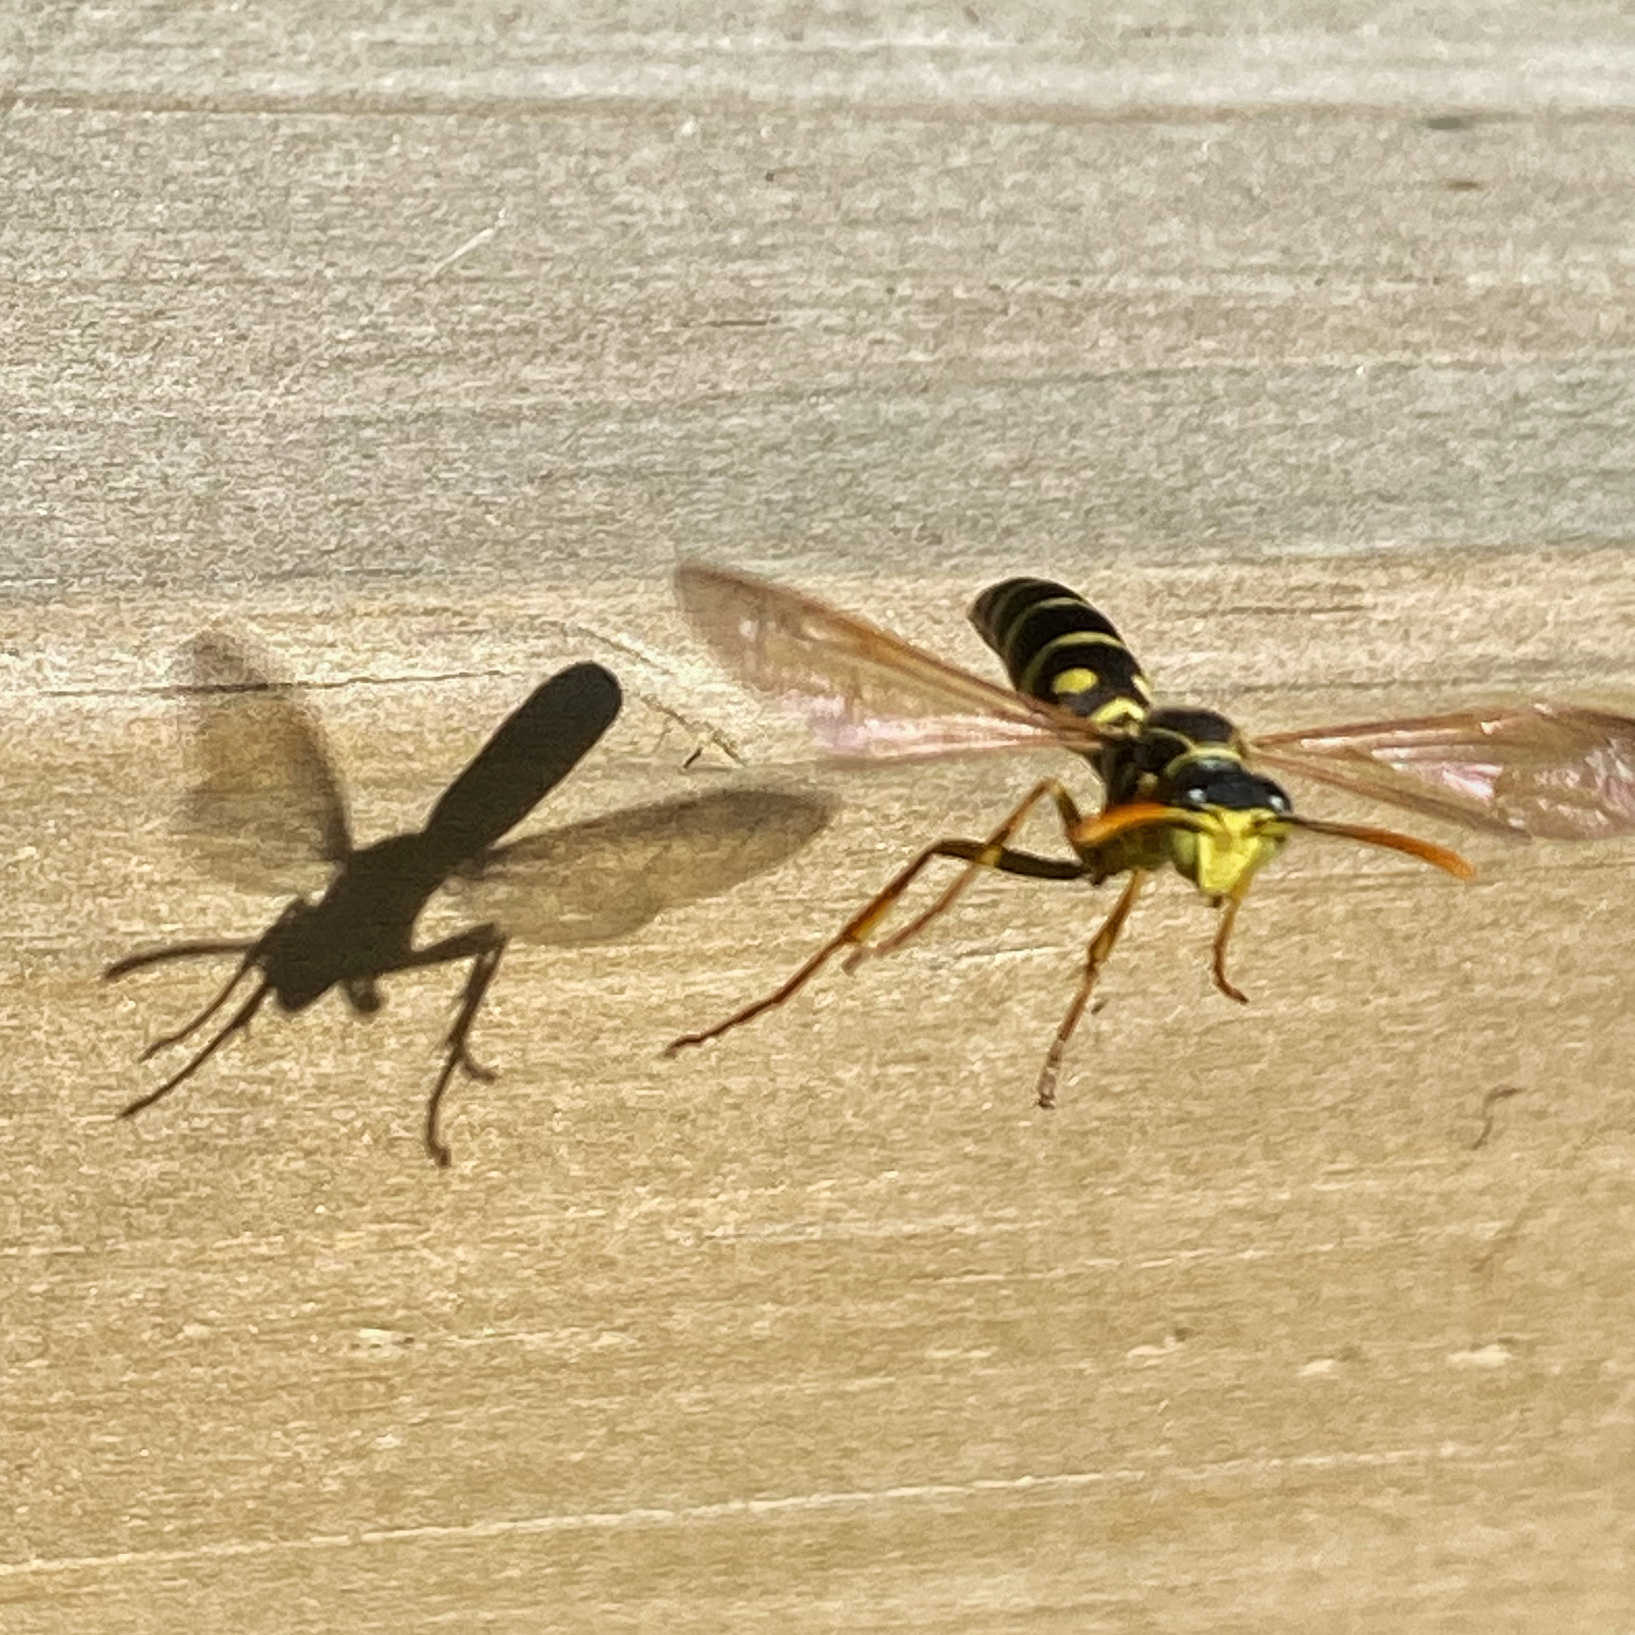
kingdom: Animalia
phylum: Arthropoda
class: Insecta
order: Hymenoptera
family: Eumenidae
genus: Polistes
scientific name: Polistes chinensis
